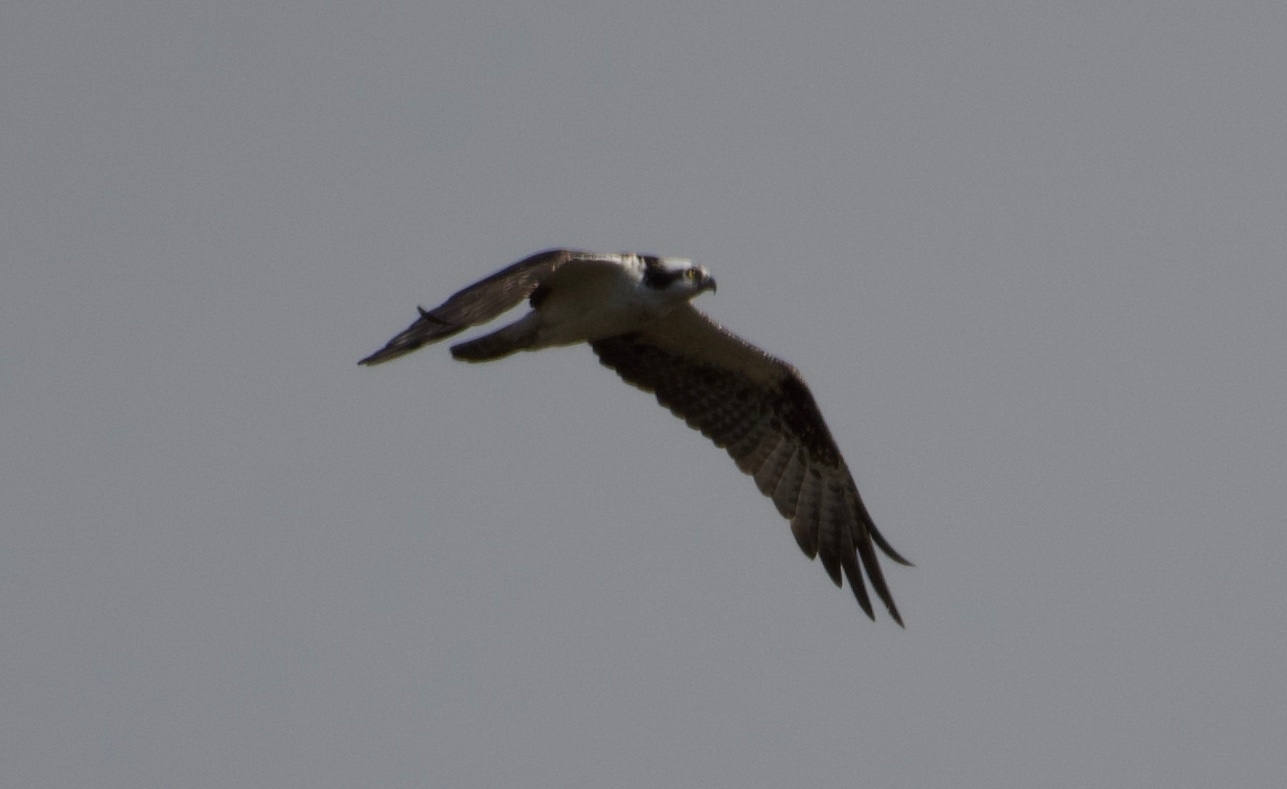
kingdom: Animalia
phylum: Chordata
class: Aves
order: Accipitriformes
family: Pandionidae
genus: Pandion
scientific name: Pandion haliaetus
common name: Osprey
